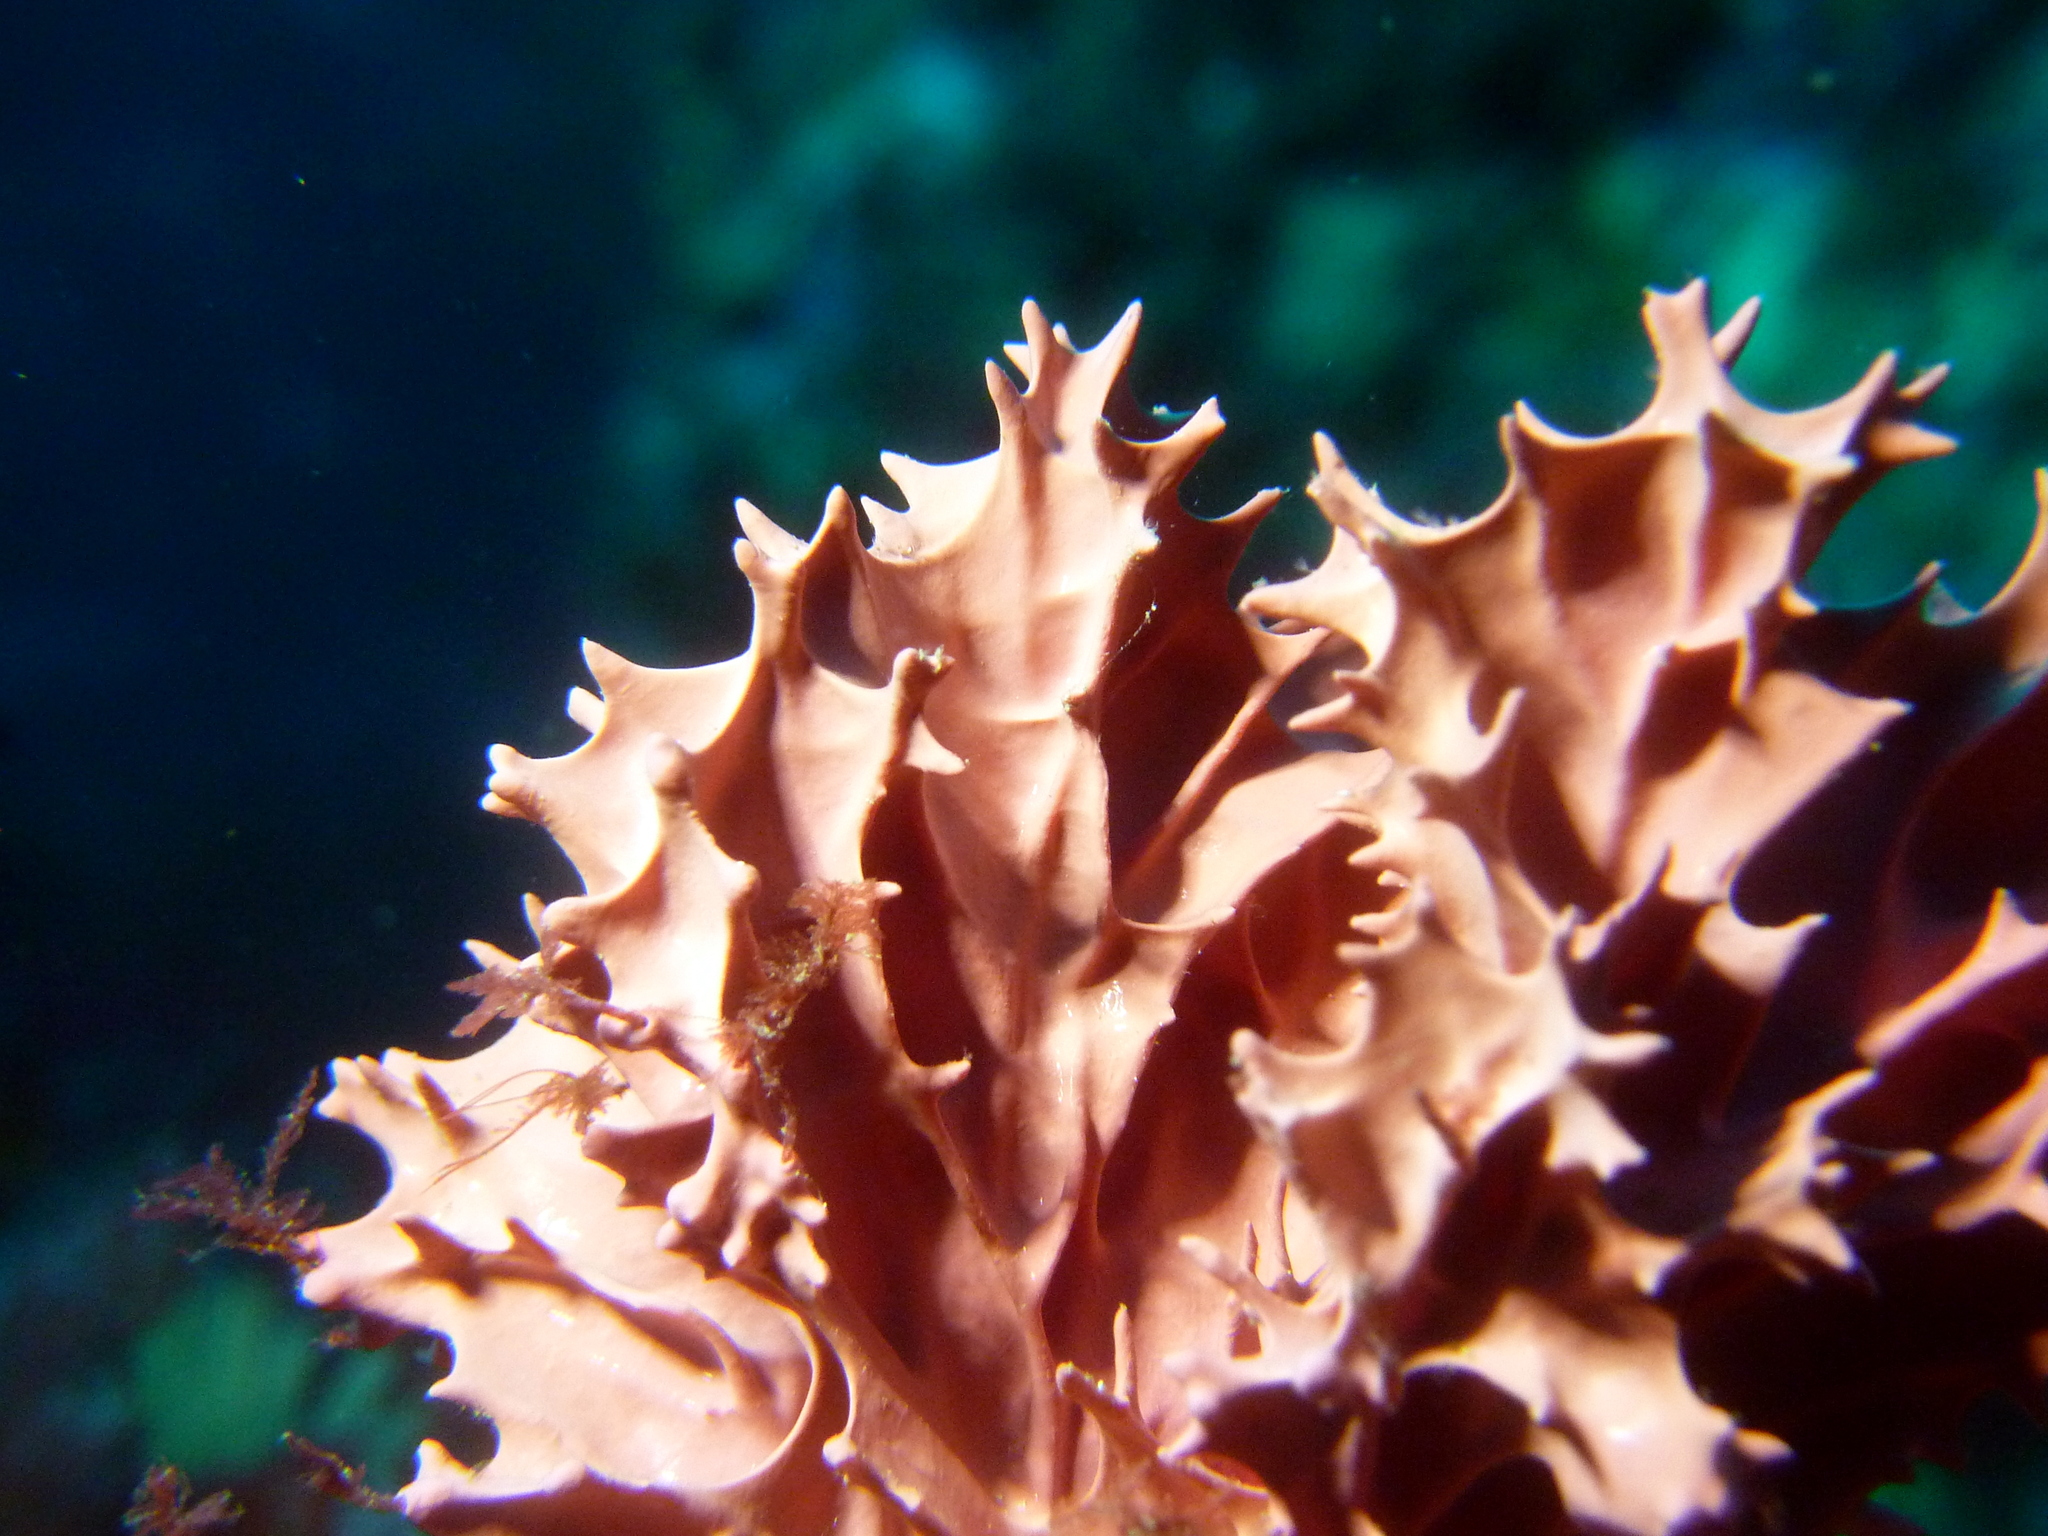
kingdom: Animalia
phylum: Porifera
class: Demospongiae
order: Dendroceratida
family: Darwinellidae
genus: Dendrilla
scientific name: Dendrilla cactos
